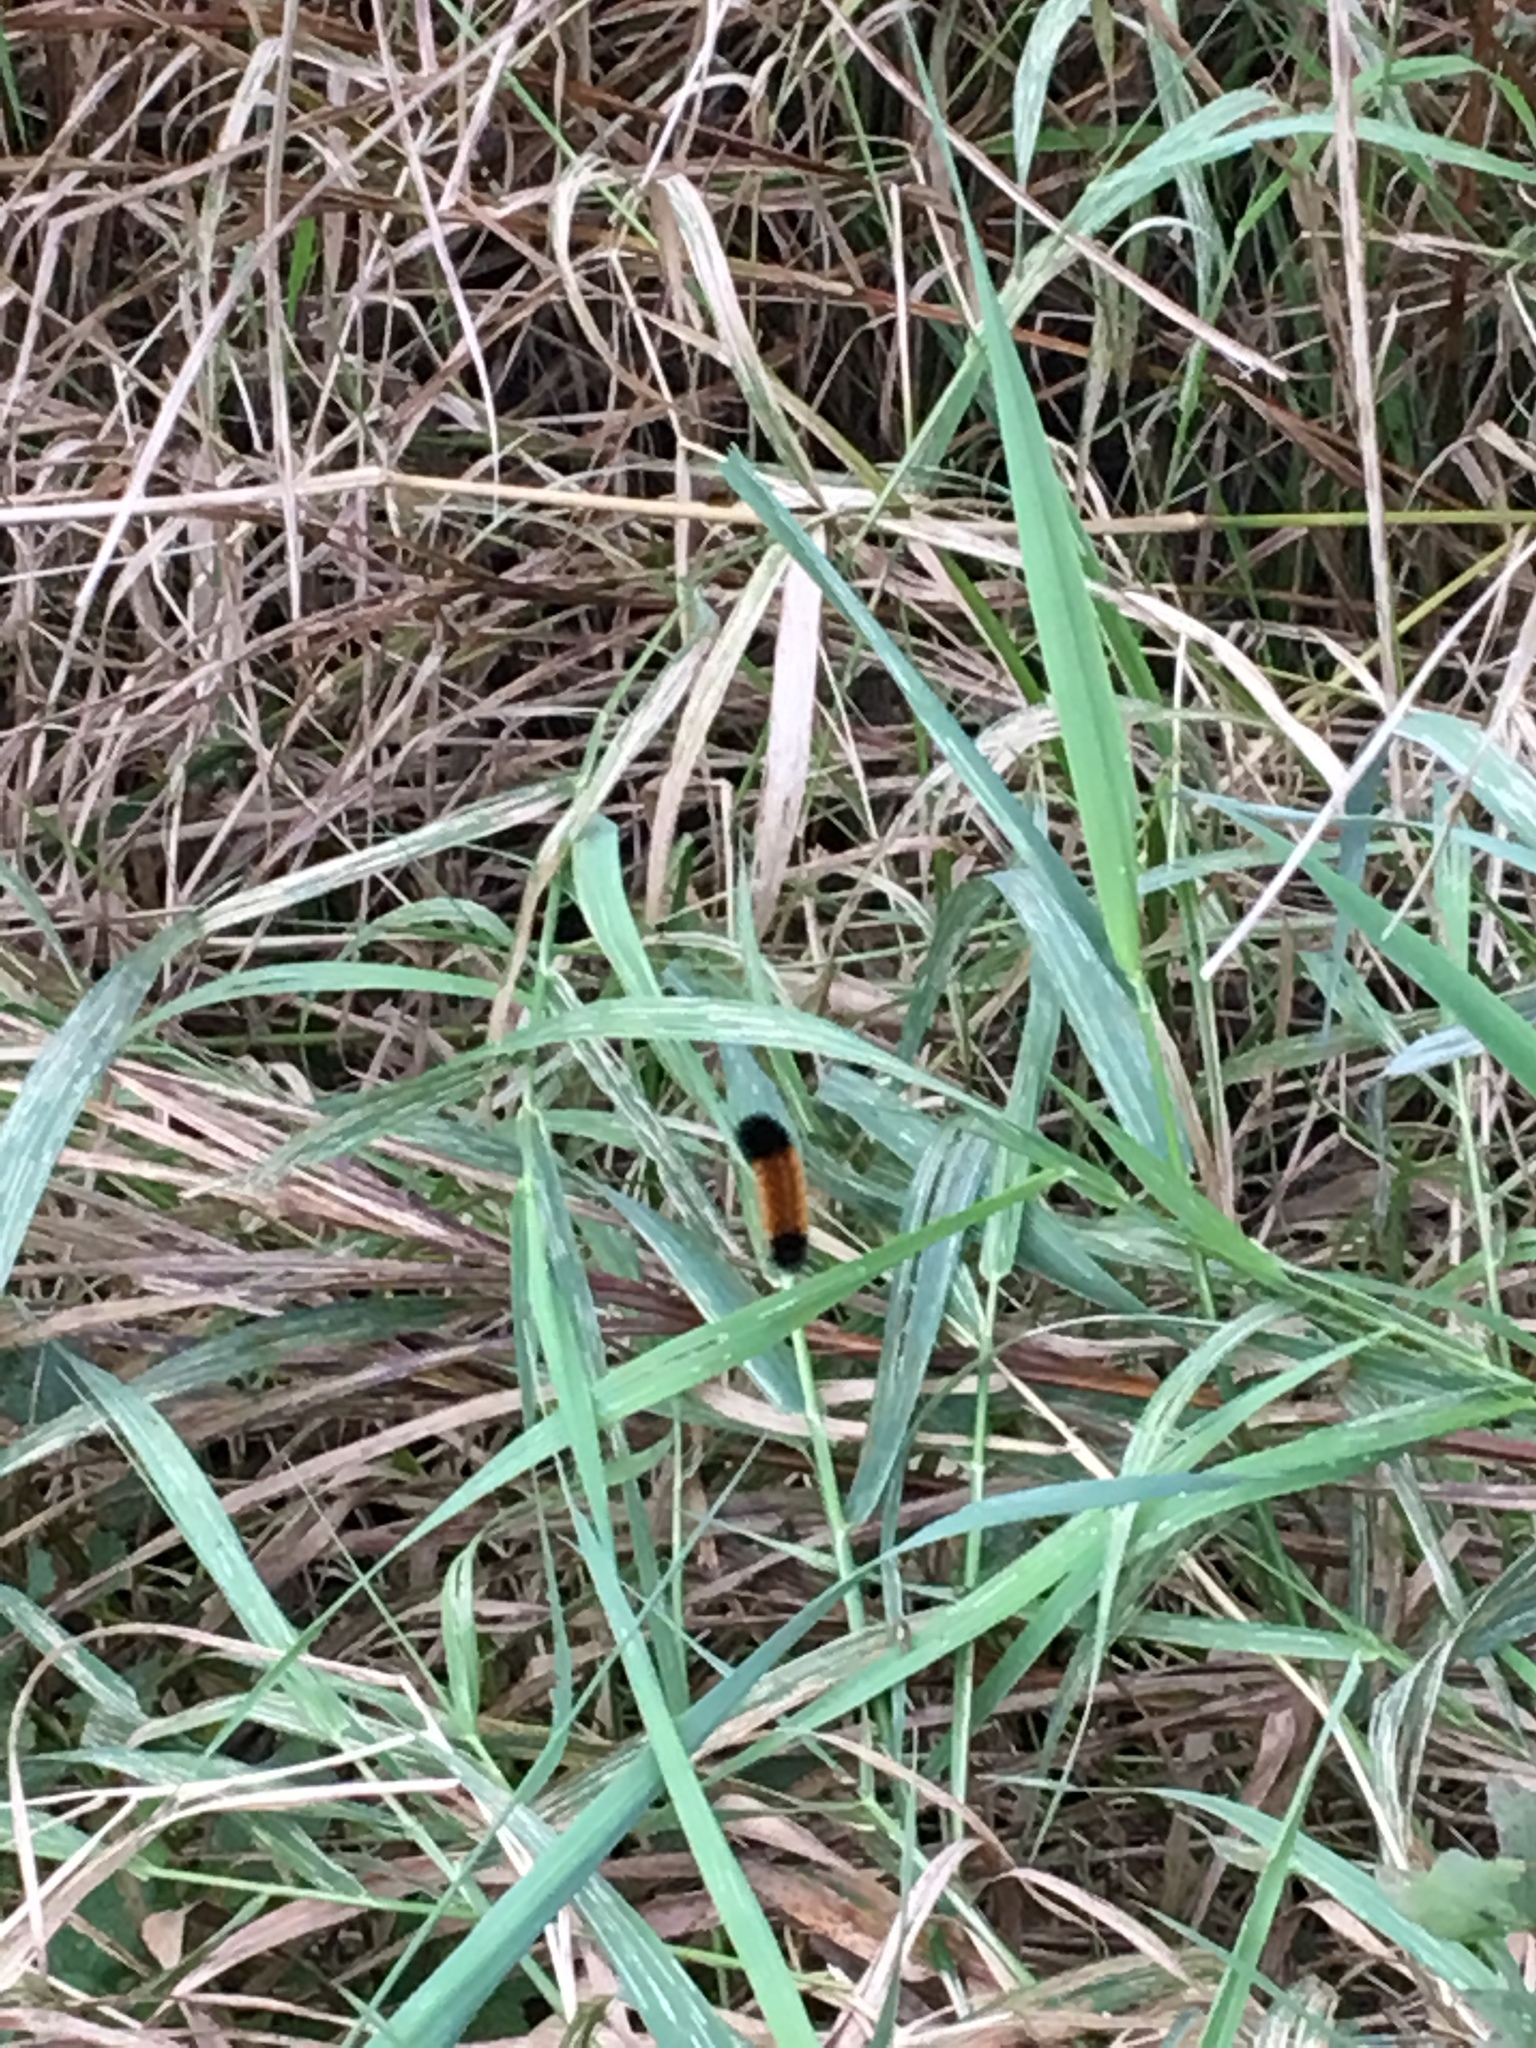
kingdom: Animalia
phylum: Arthropoda
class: Insecta
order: Lepidoptera
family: Erebidae
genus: Pyrrharctia
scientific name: Pyrrharctia isabella
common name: Isabella tiger moth
